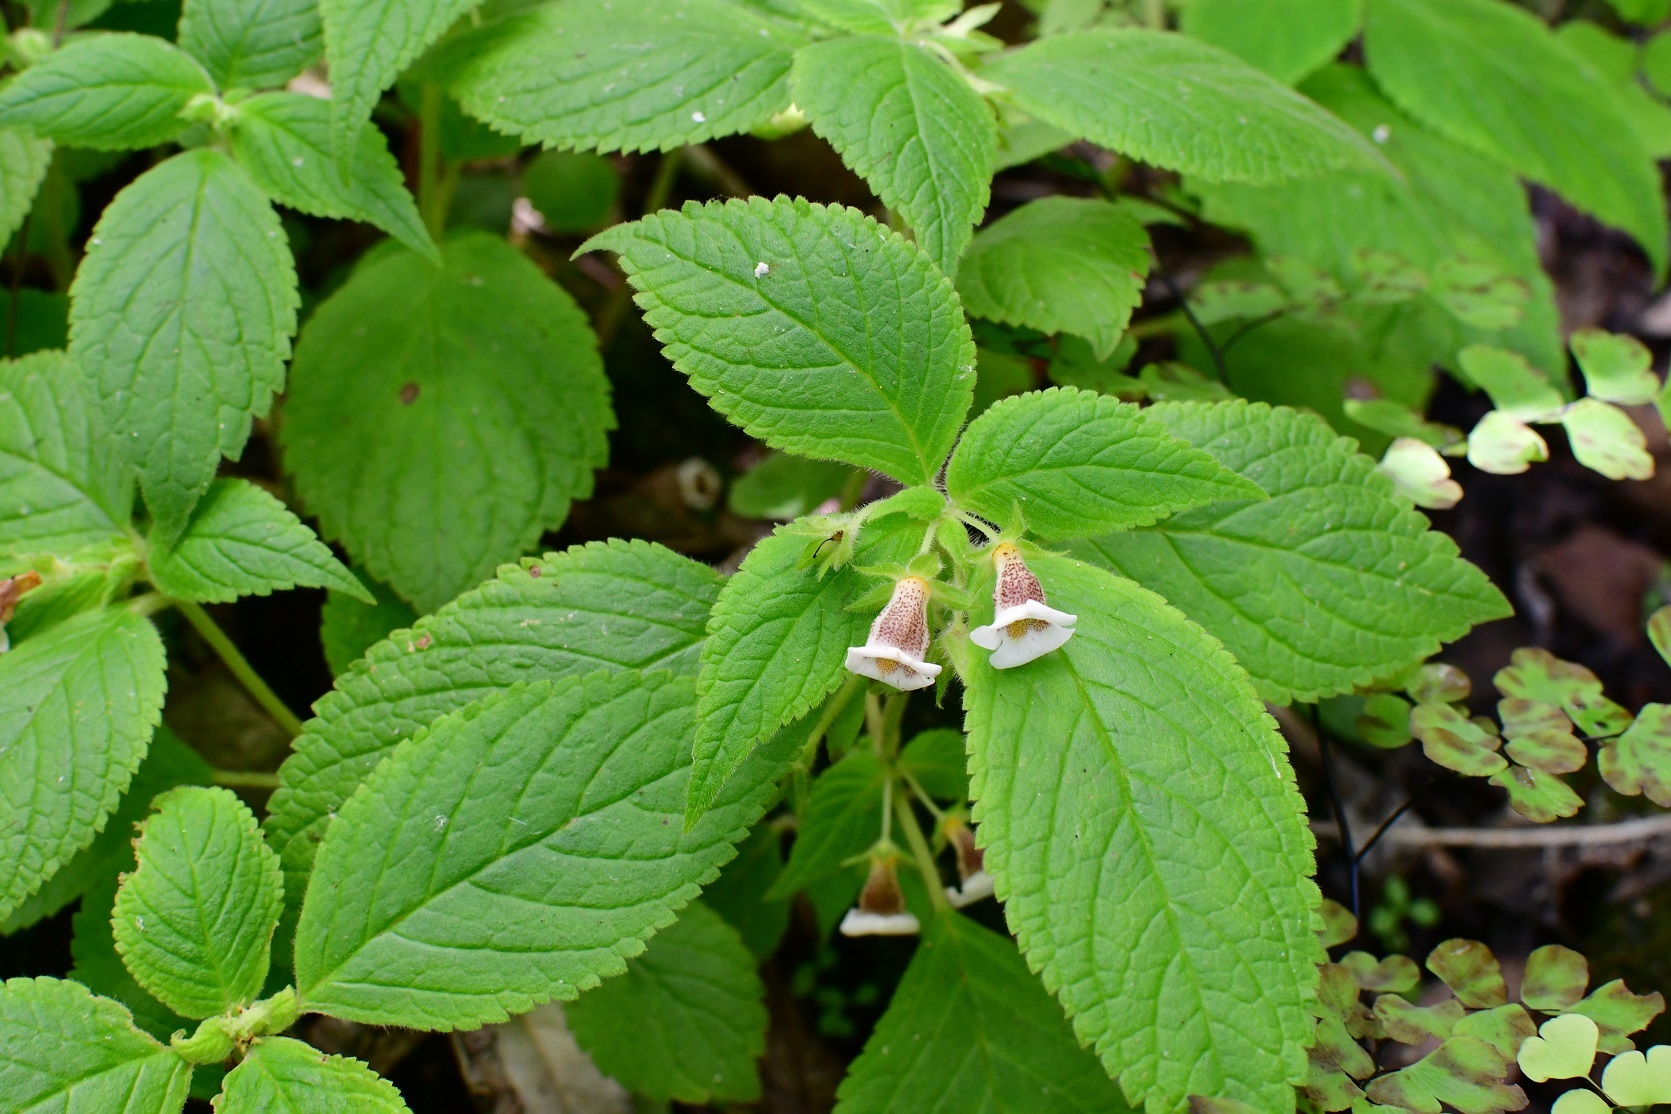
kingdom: Plantae
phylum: Tracheophyta
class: Magnoliopsida
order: Lamiales
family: Gesneriaceae
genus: Achimenes
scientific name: Achimenes misera
